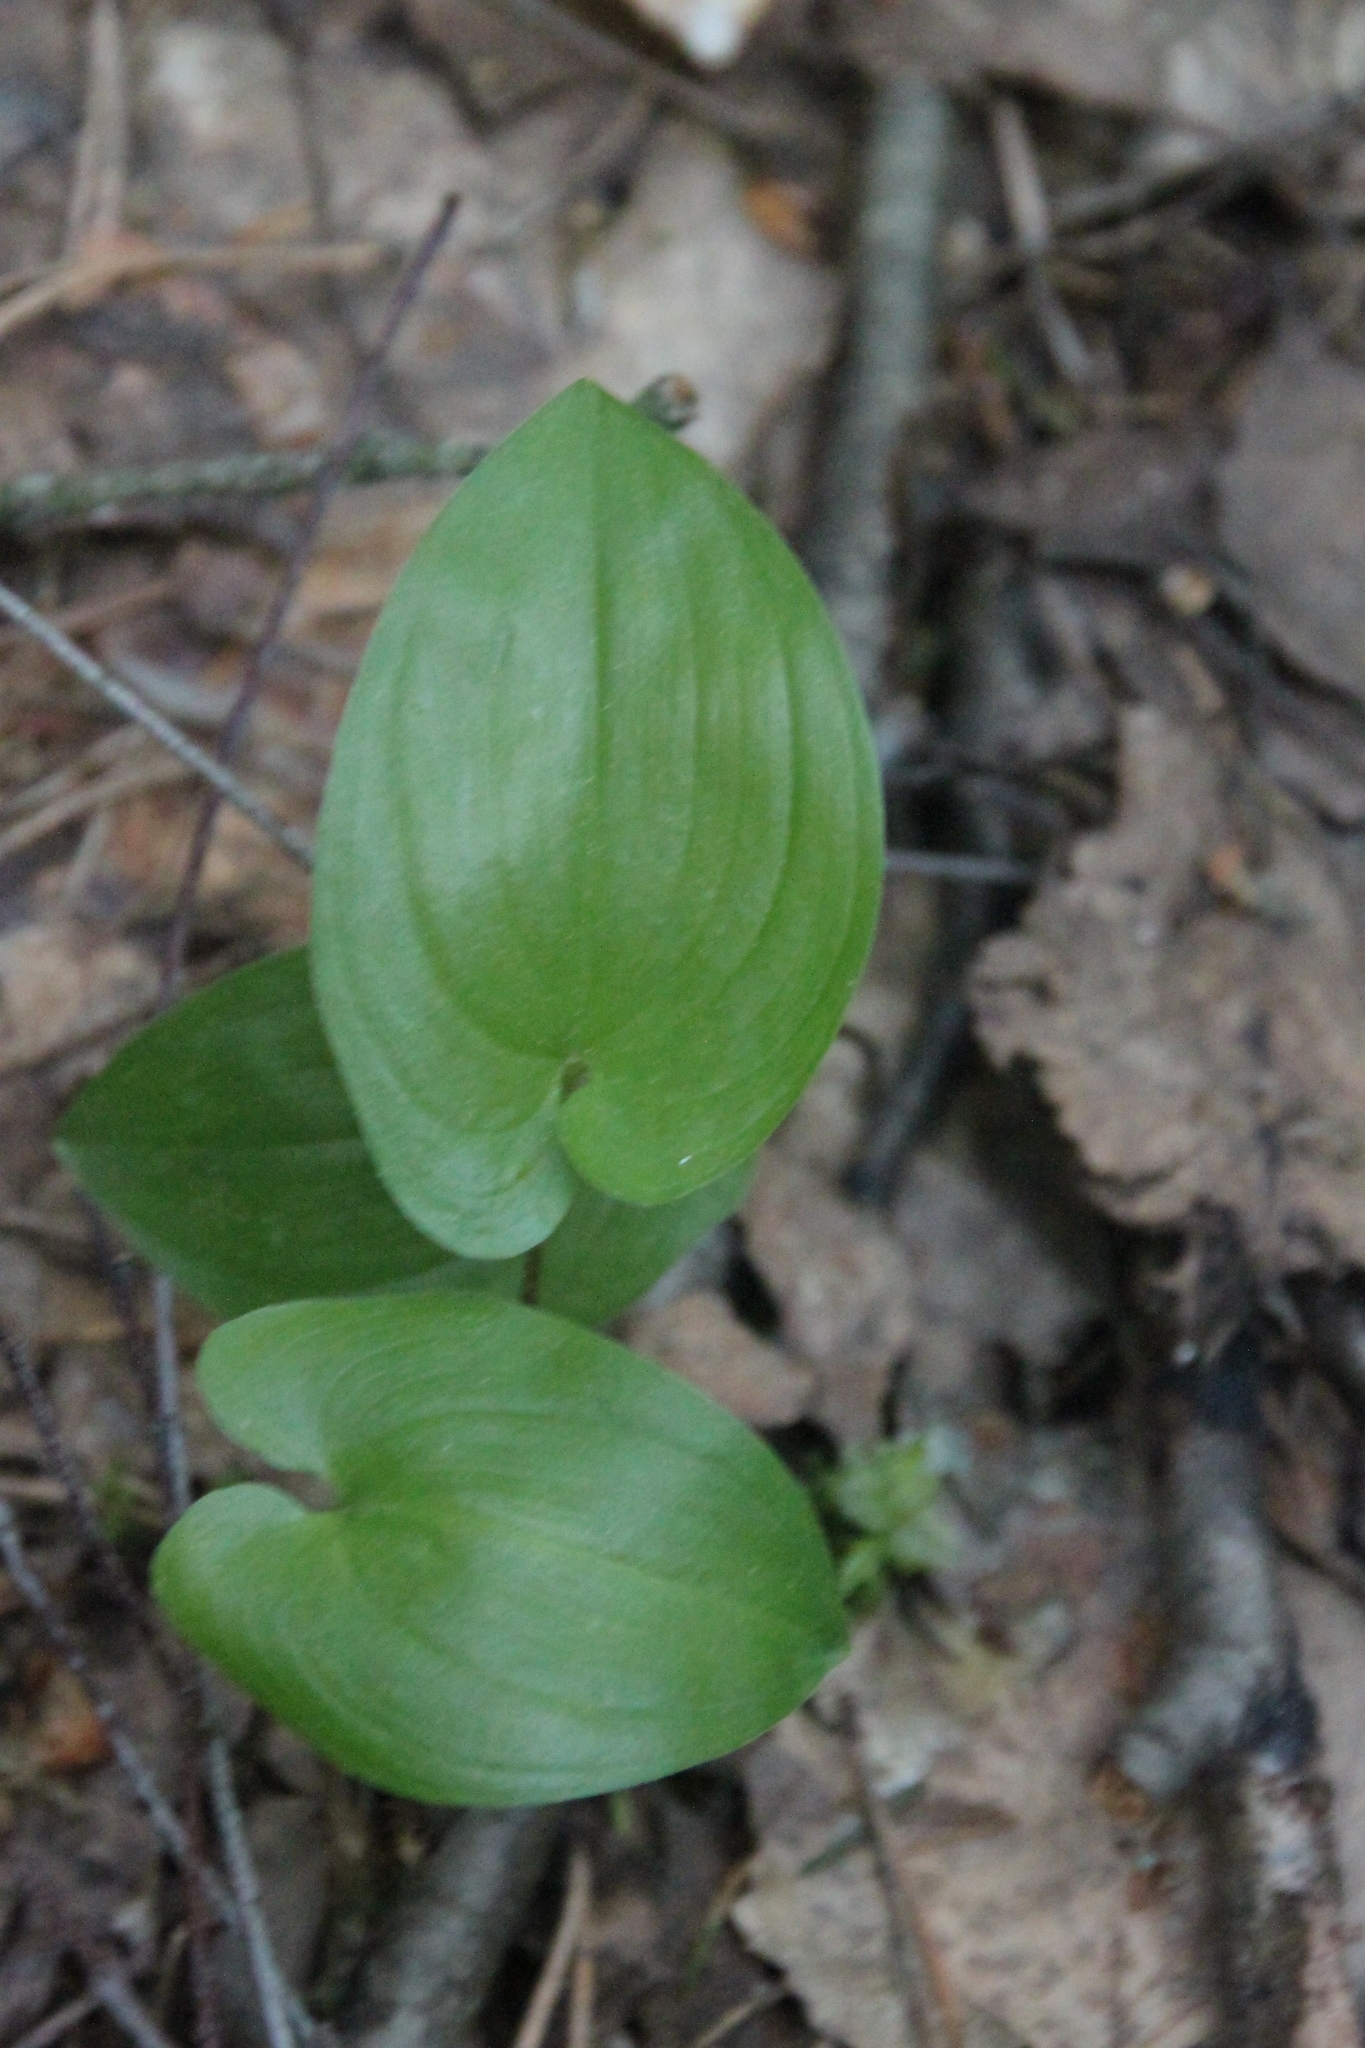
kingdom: Plantae
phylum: Tracheophyta
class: Liliopsida
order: Asparagales
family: Asparagaceae
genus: Maianthemum
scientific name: Maianthemum bifolium
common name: May lily
